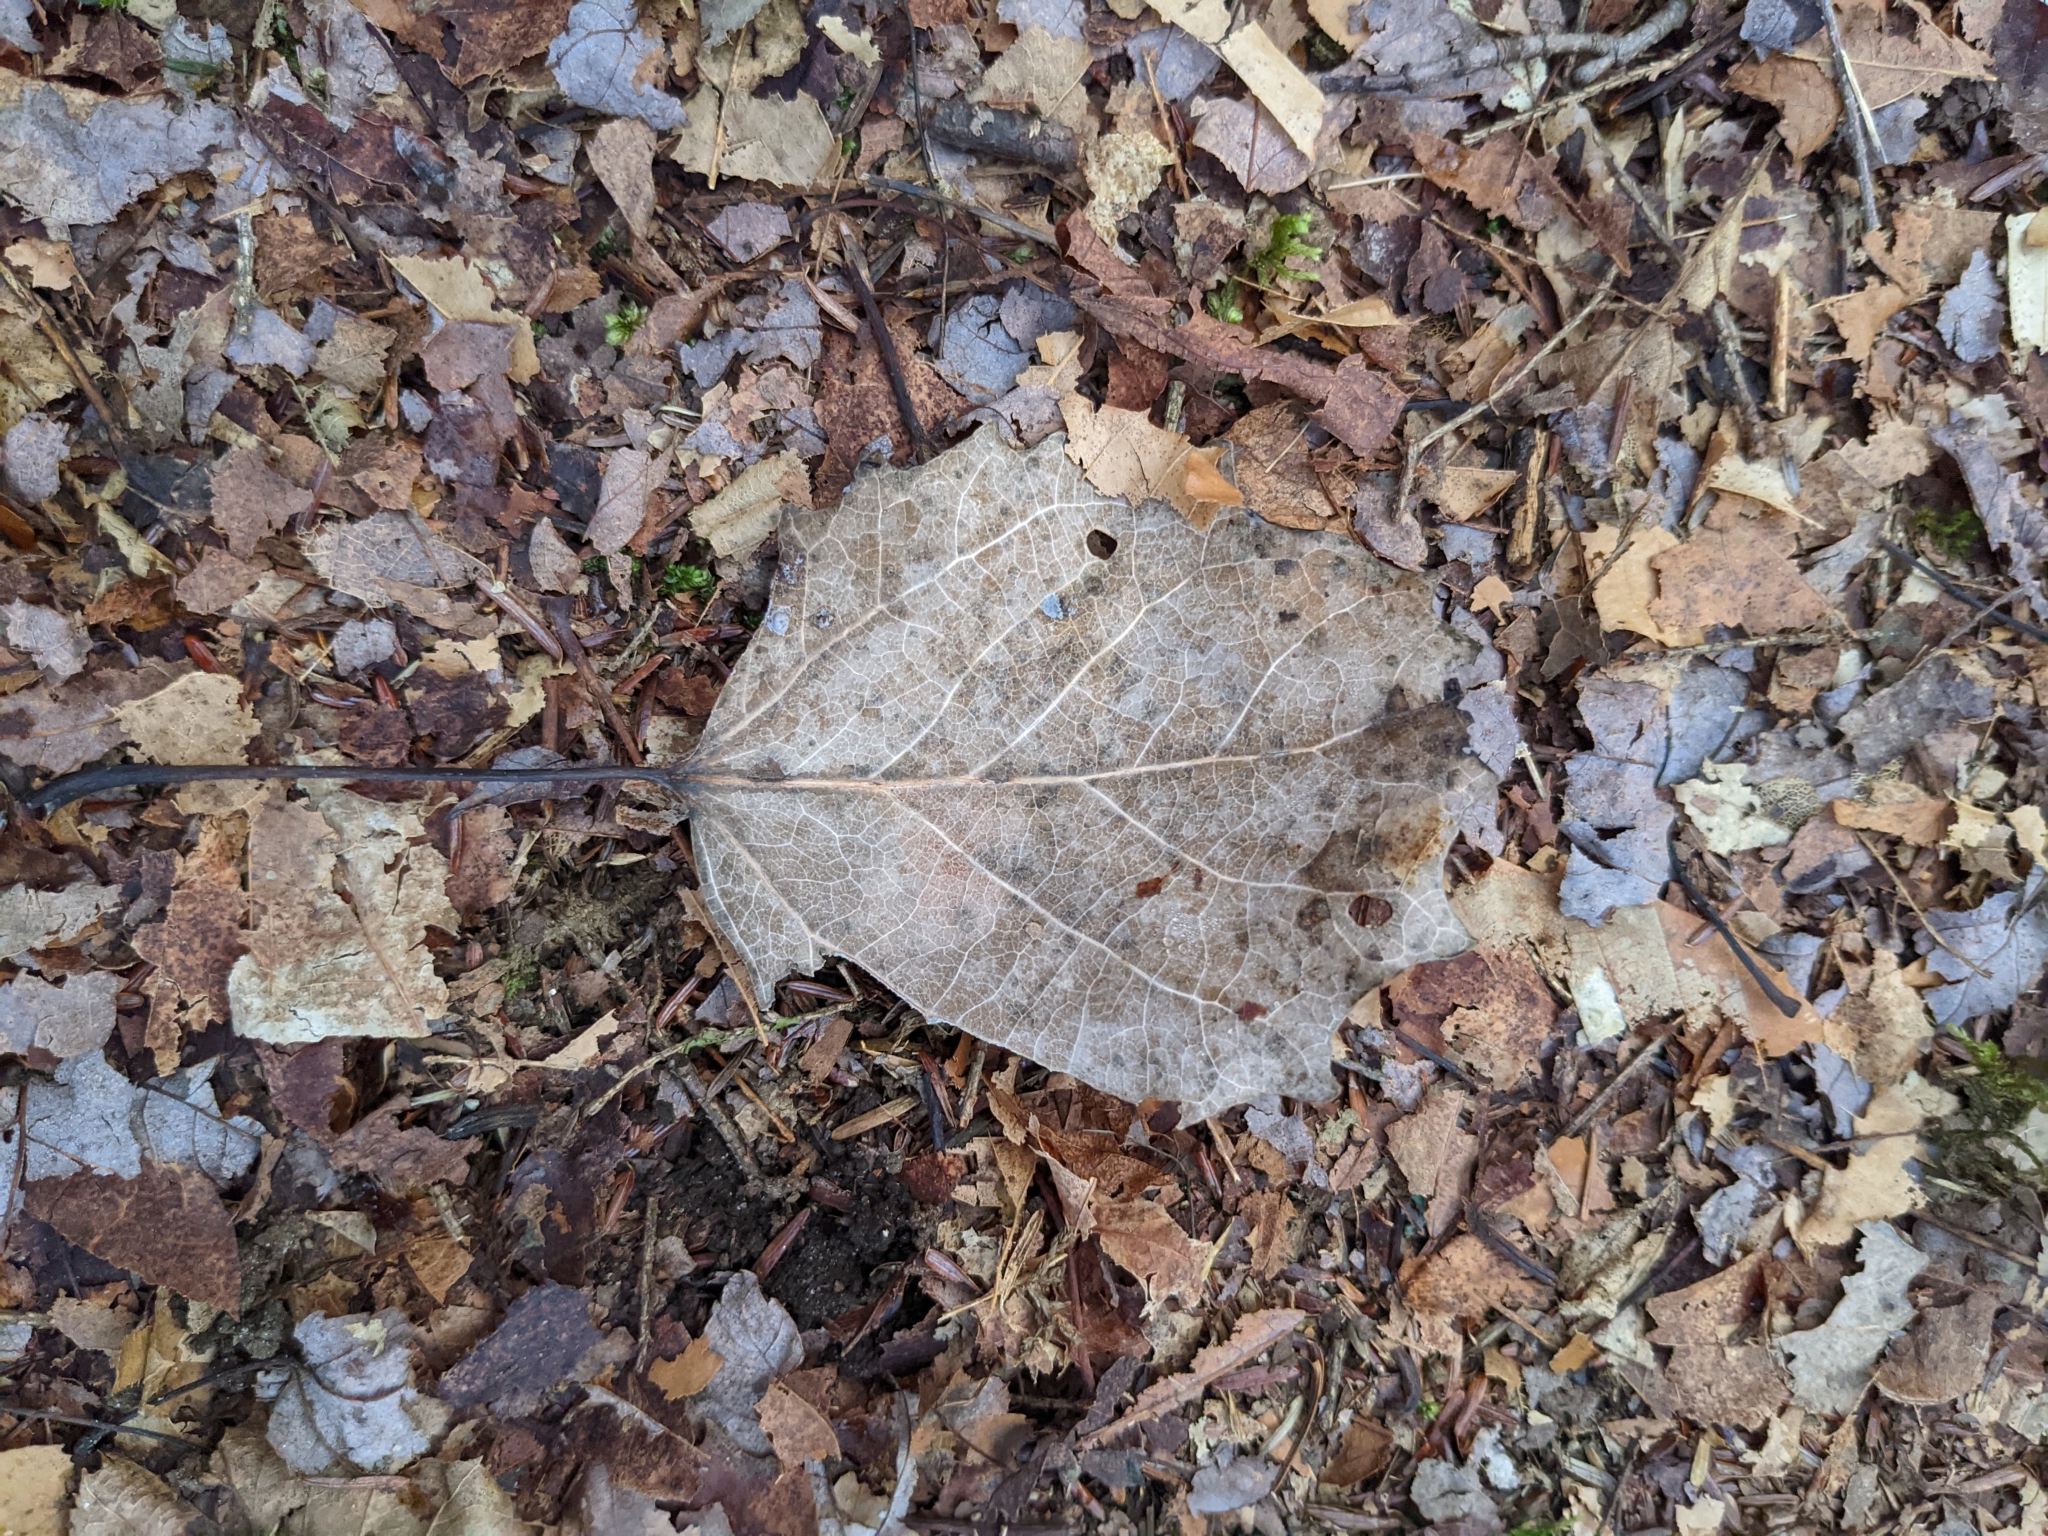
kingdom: Plantae
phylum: Tracheophyta
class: Magnoliopsida
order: Malpighiales
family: Salicaceae
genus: Populus
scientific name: Populus grandidentata
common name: Bigtooth aspen
